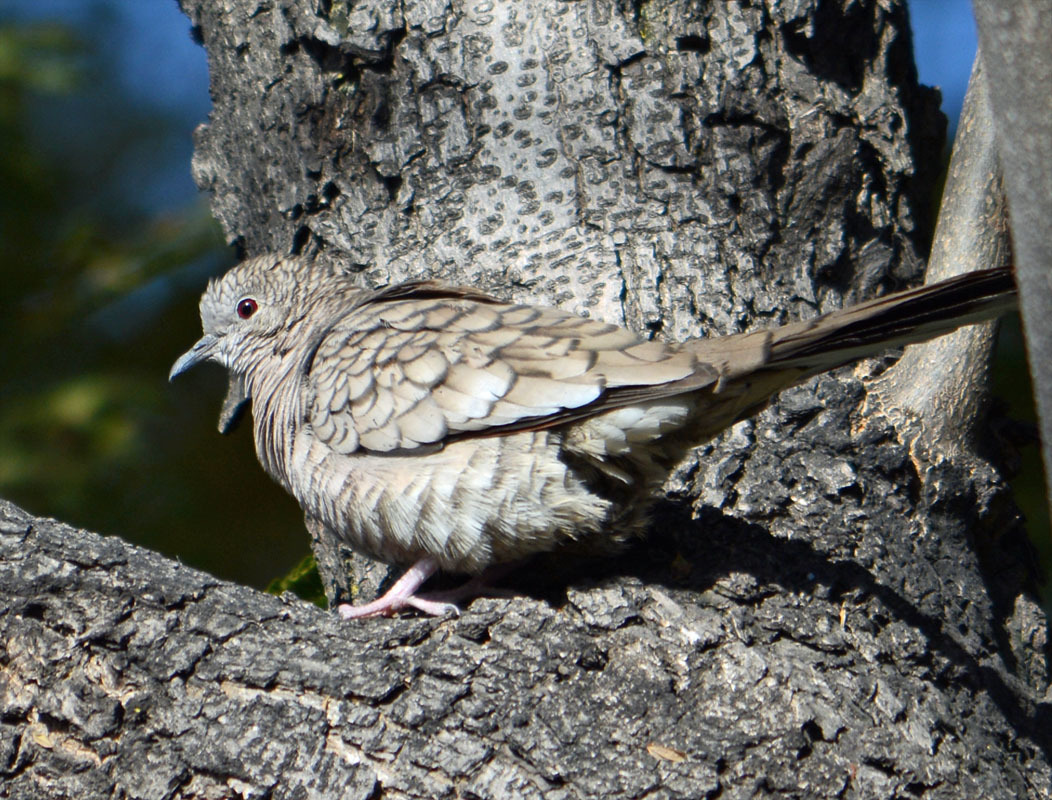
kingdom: Animalia
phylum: Chordata
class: Aves
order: Columbiformes
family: Columbidae
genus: Columbina
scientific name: Columbina inca
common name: Inca dove
